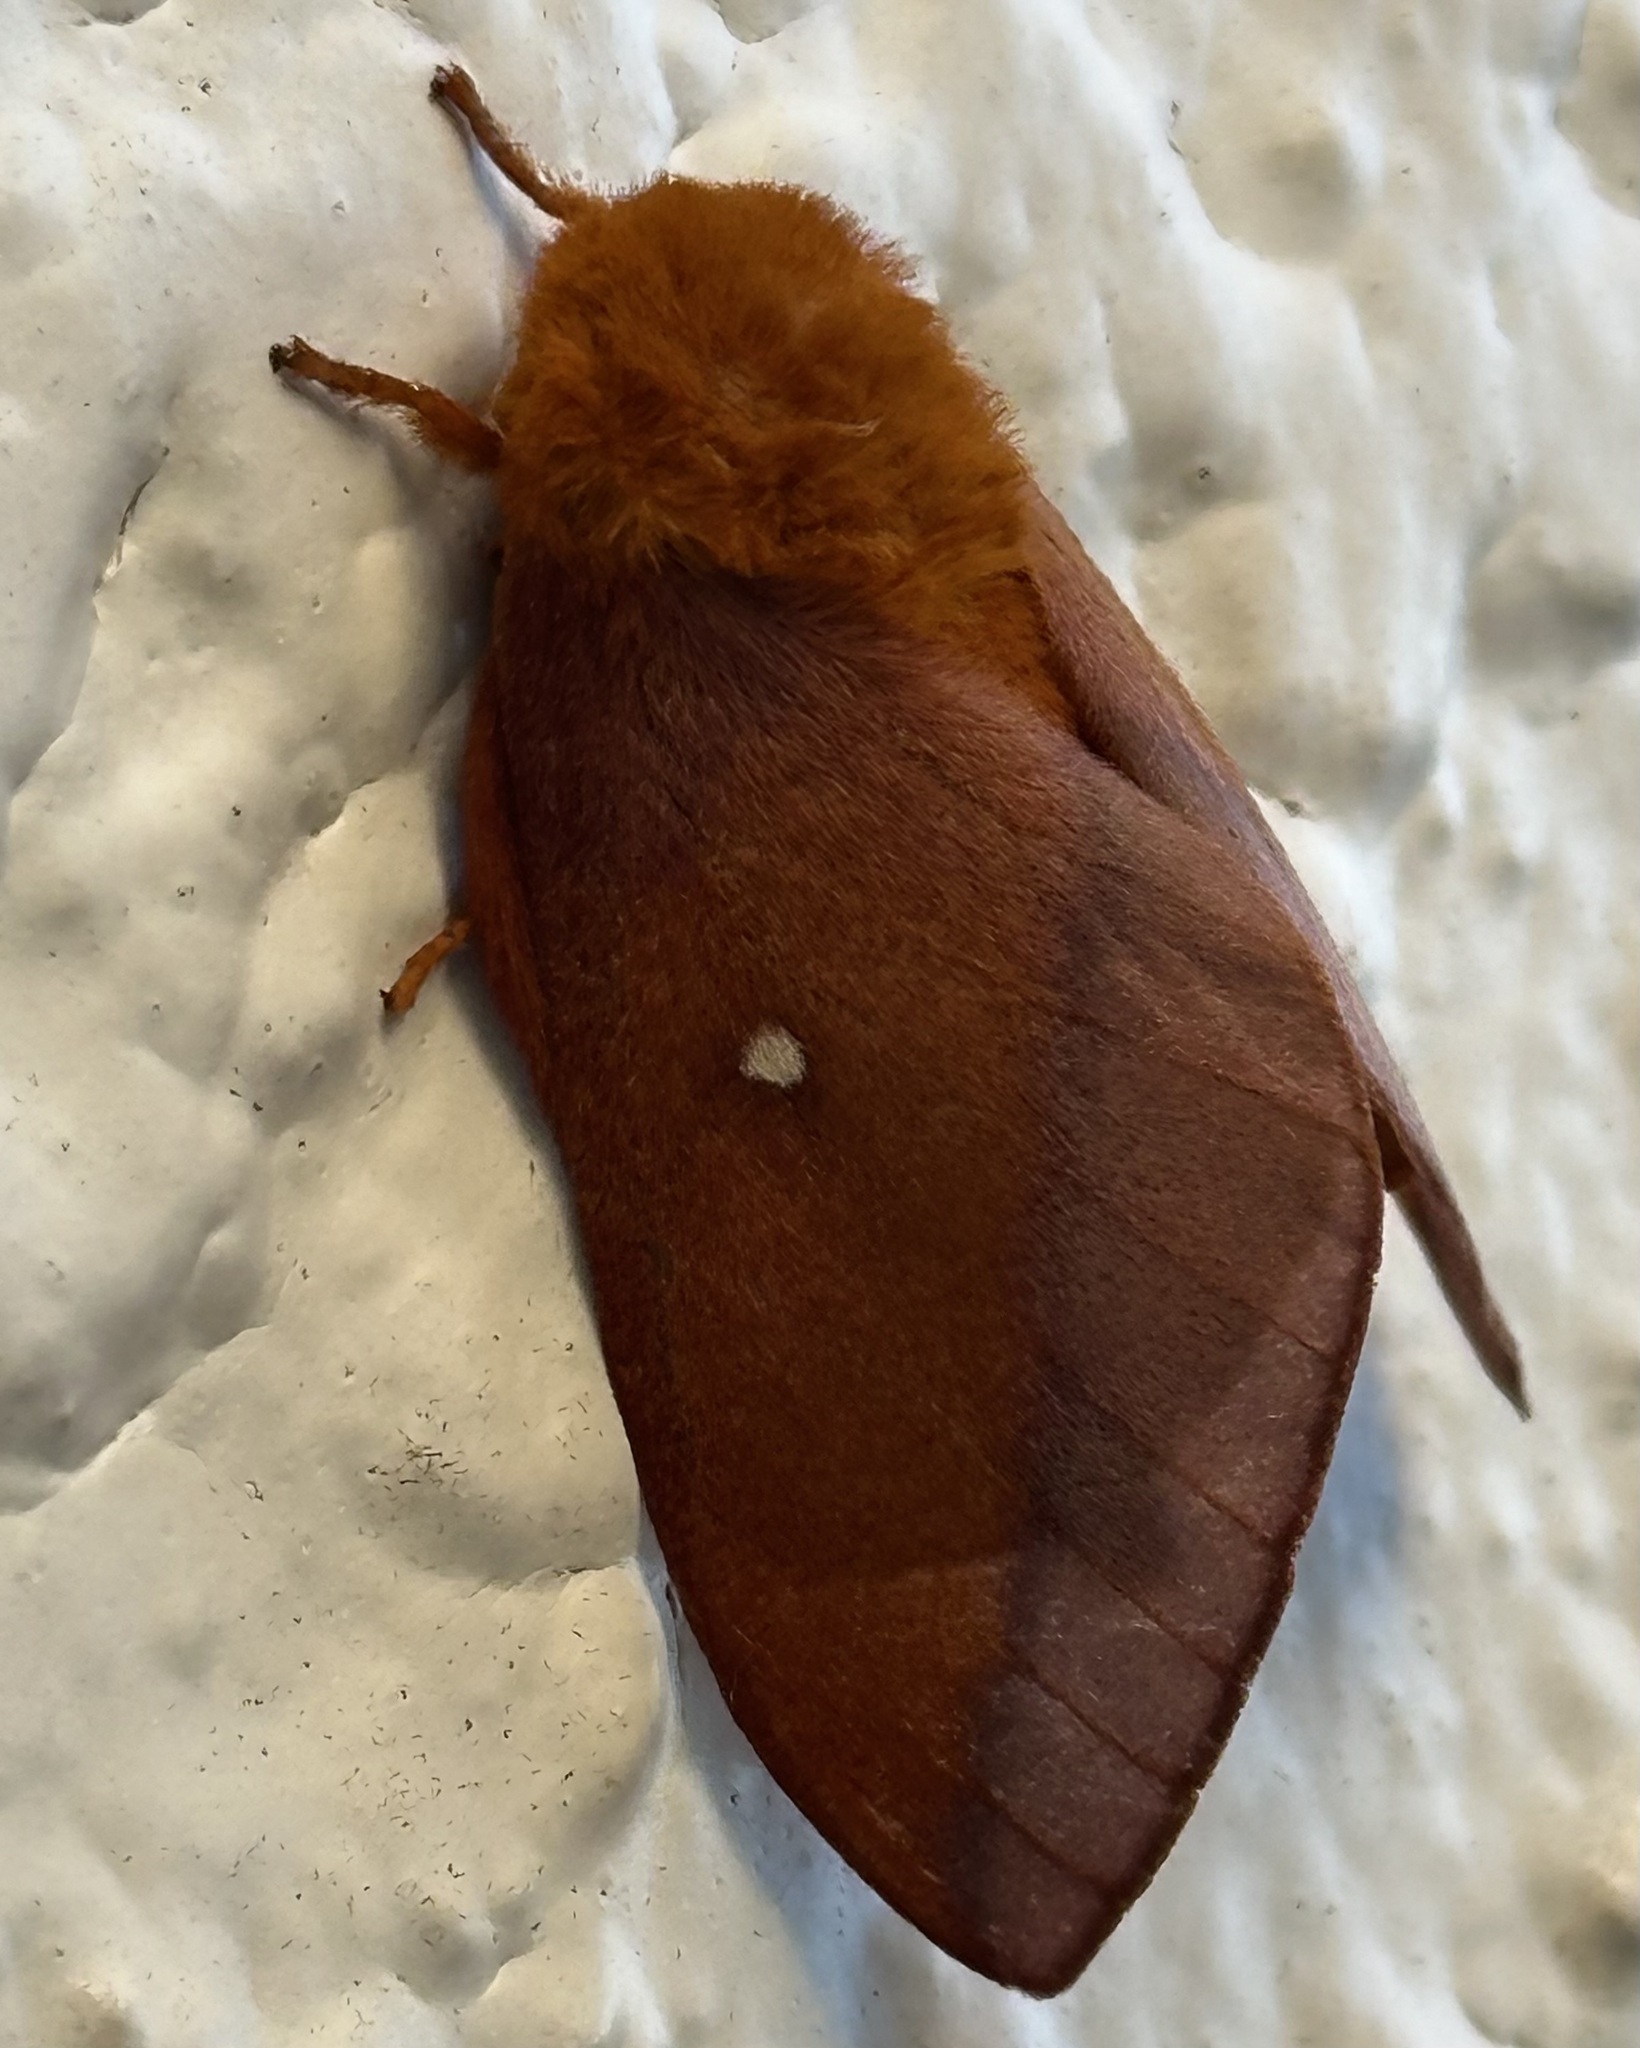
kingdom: Animalia
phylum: Arthropoda
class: Insecta
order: Lepidoptera
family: Saturniidae
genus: Anisota
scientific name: Anisota virginiensis
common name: Pink striped oakworm moth
